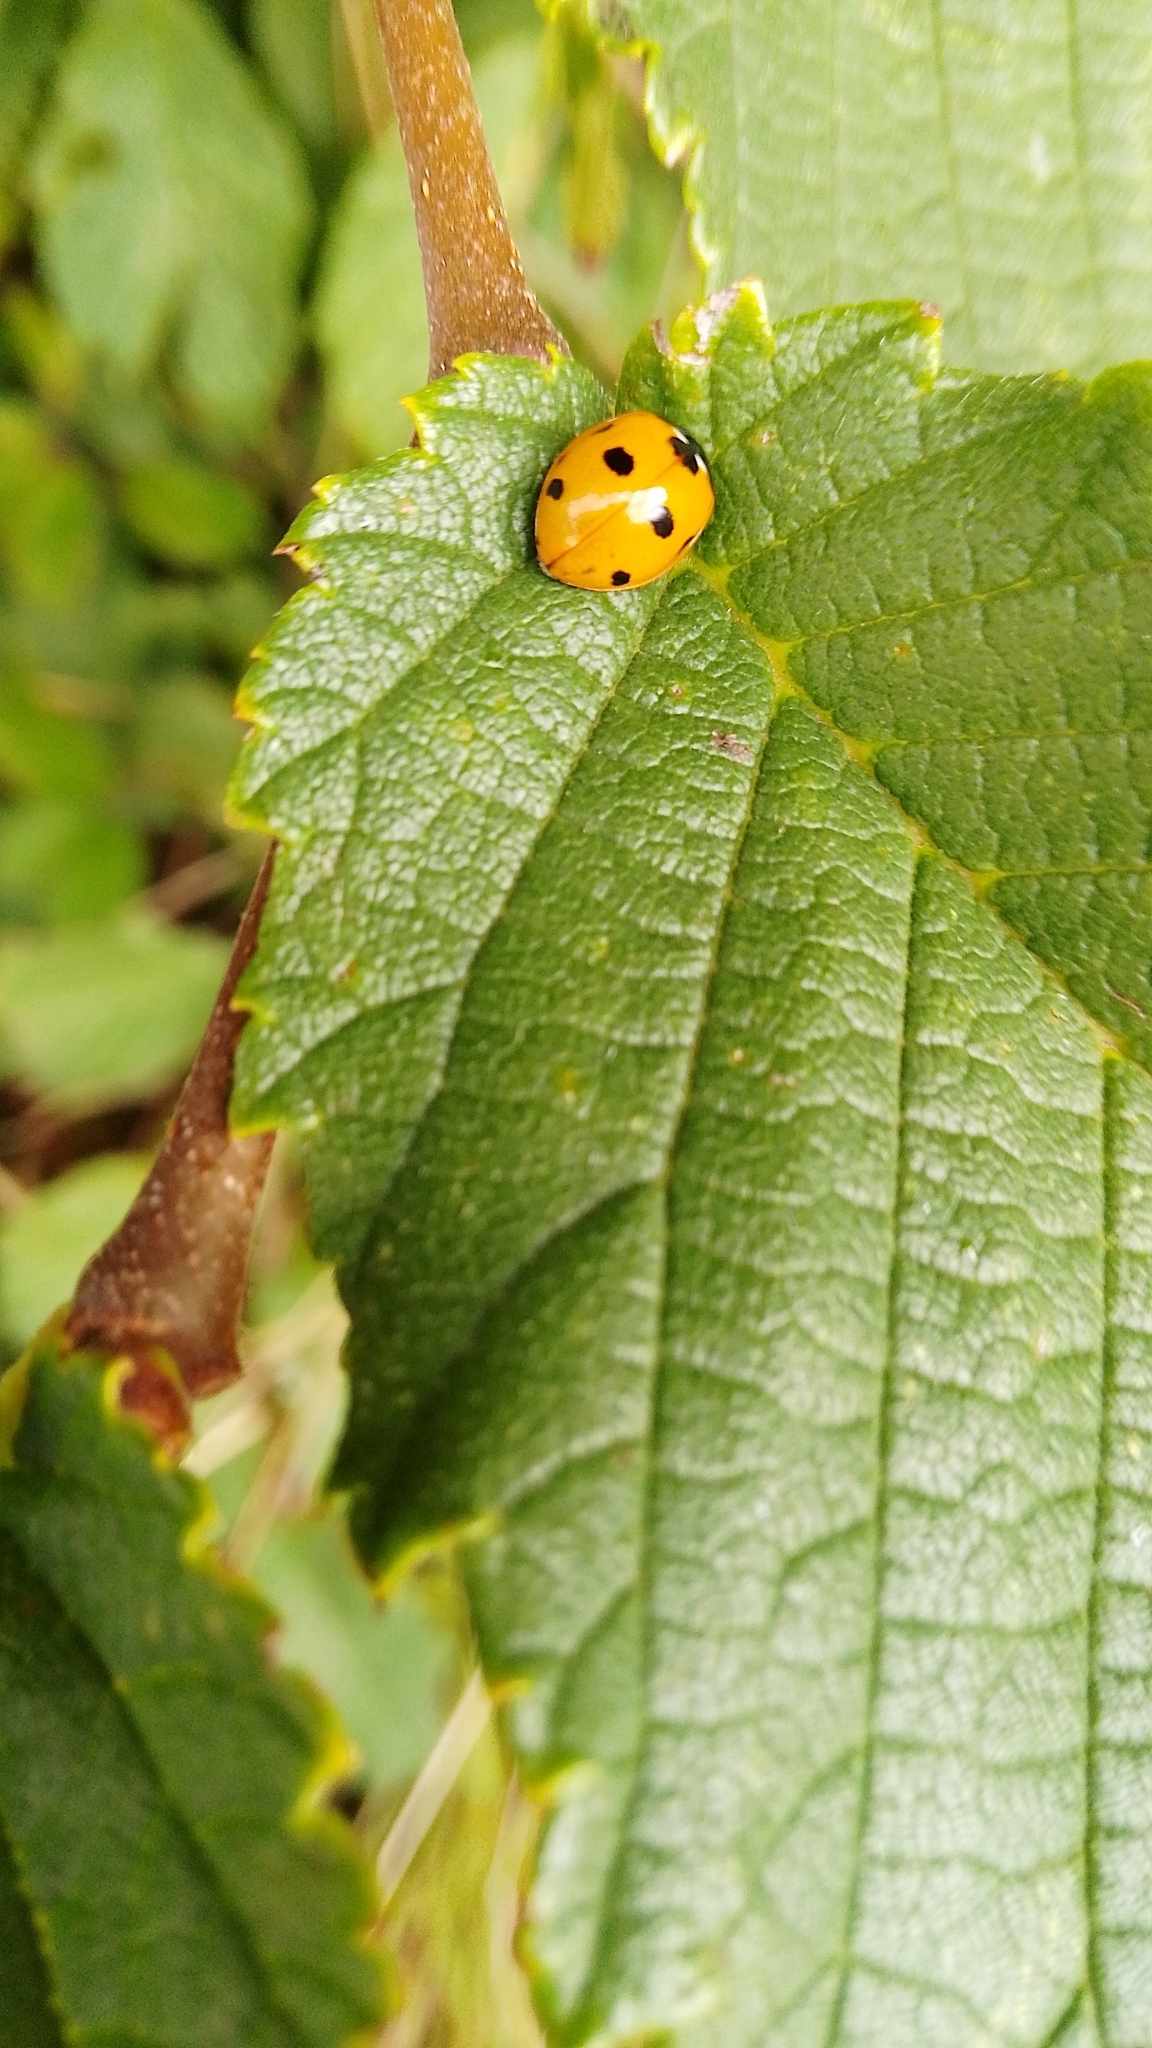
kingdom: Animalia
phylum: Arthropoda
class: Insecta
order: Coleoptera
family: Coccinellidae
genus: Coccinella
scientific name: Coccinella septempunctata
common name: Sevenspotted lady beetle
